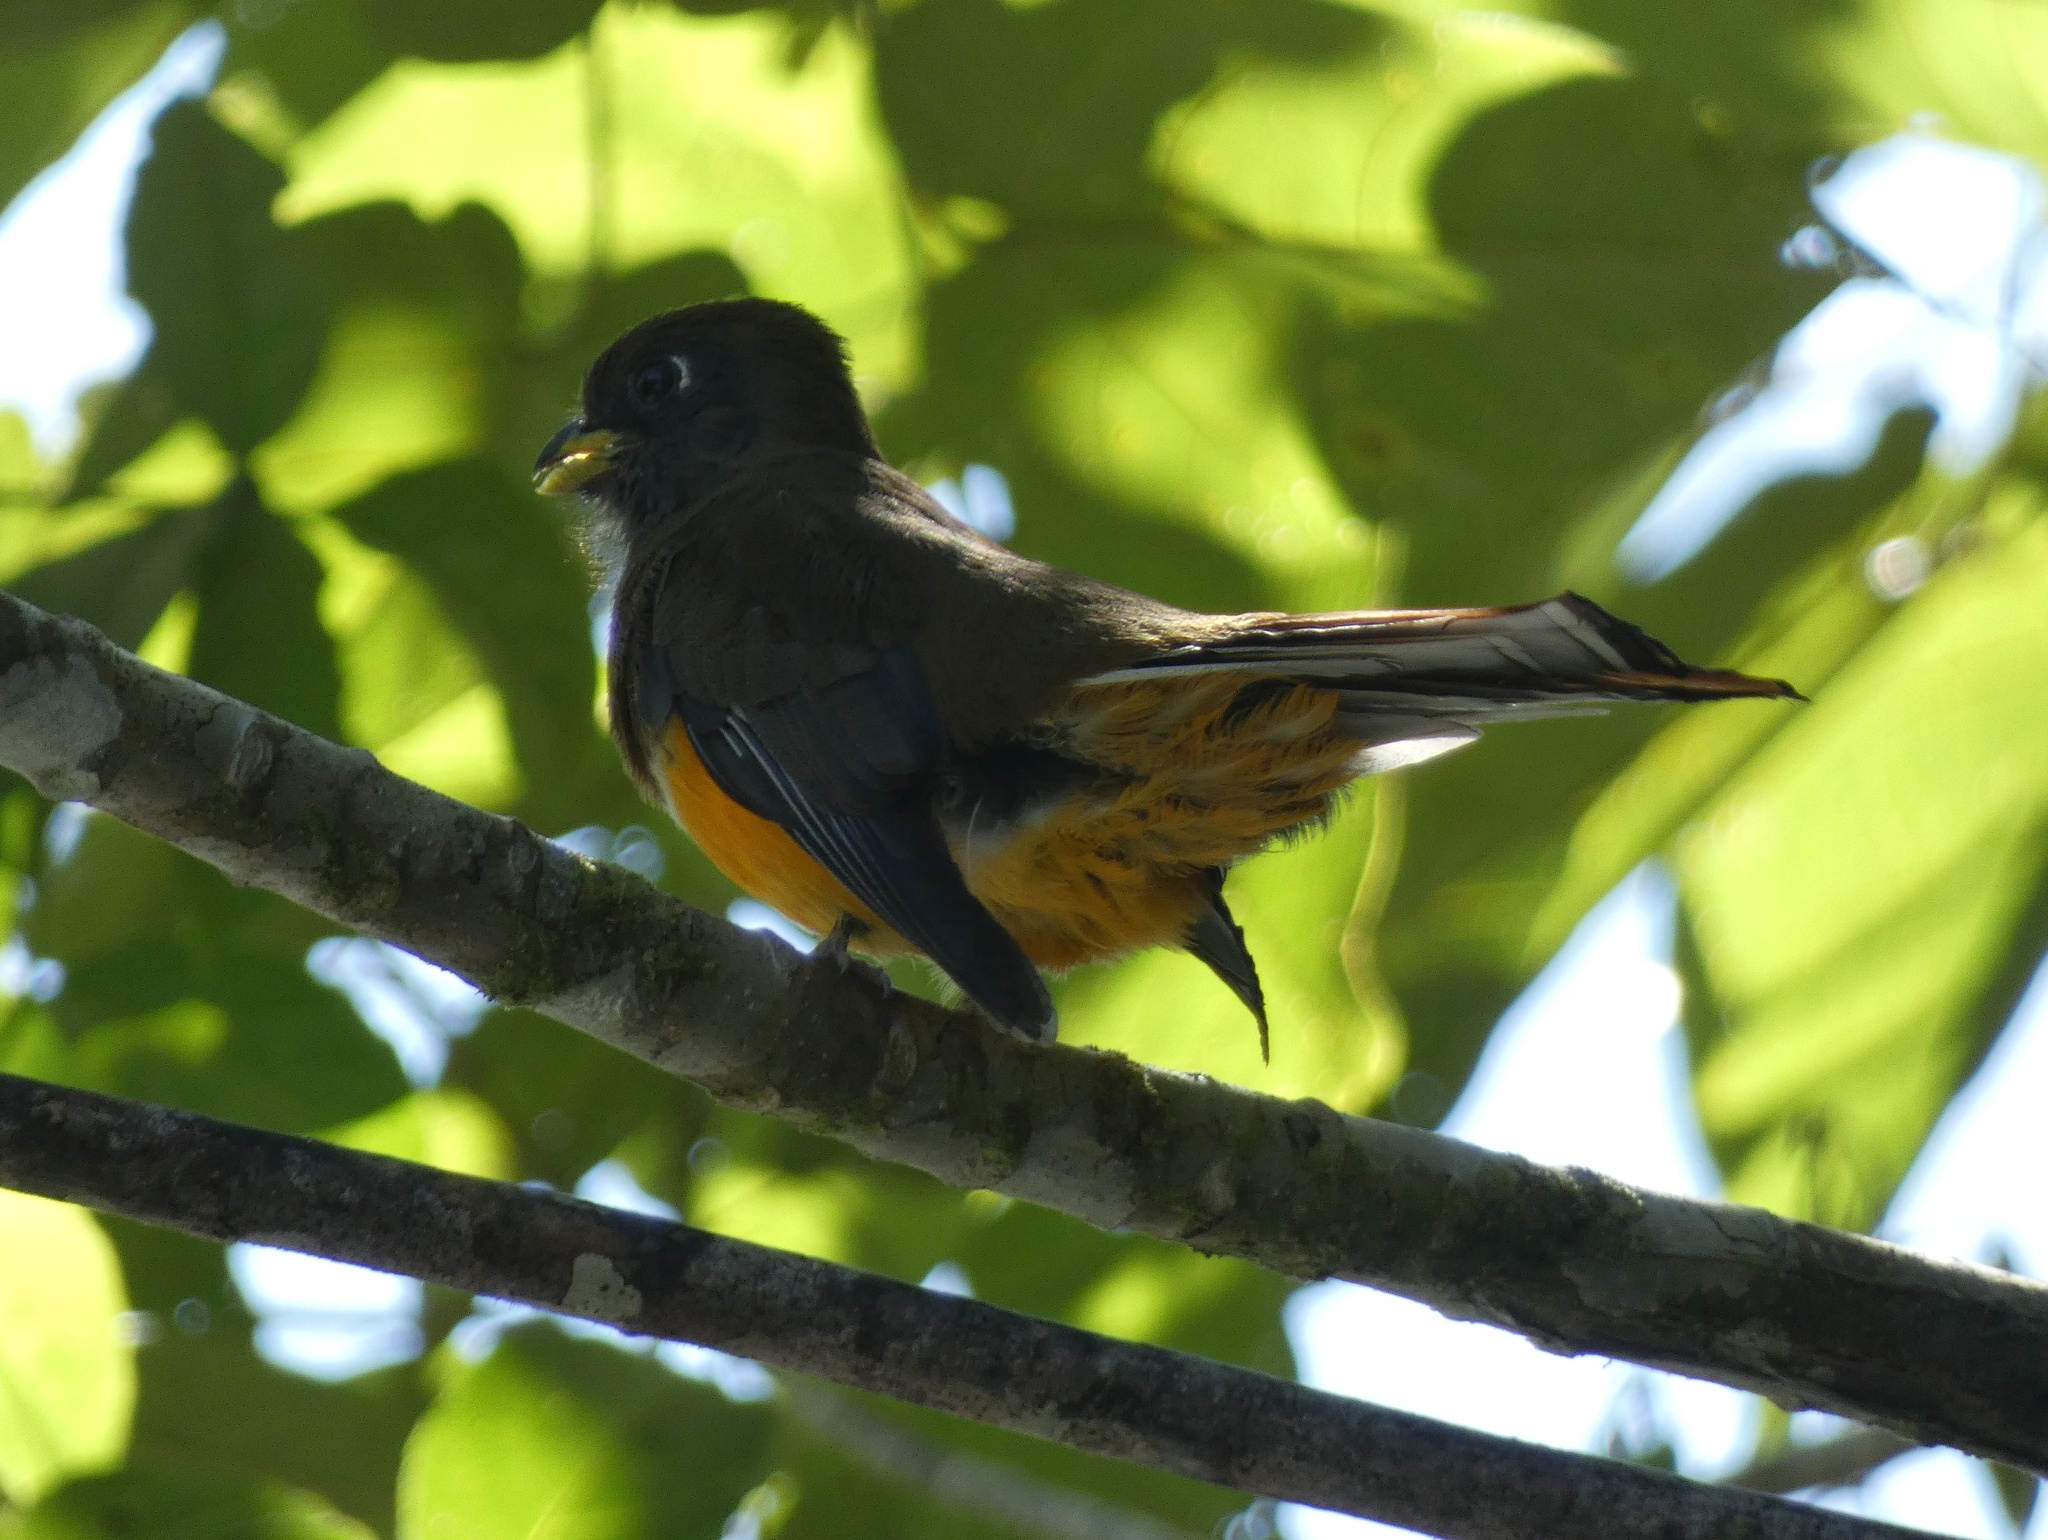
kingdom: Animalia
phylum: Chordata
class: Aves
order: Trogoniformes
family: Trogonidae
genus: Trogon
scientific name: Trogon rufus
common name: Black-throated trogon
